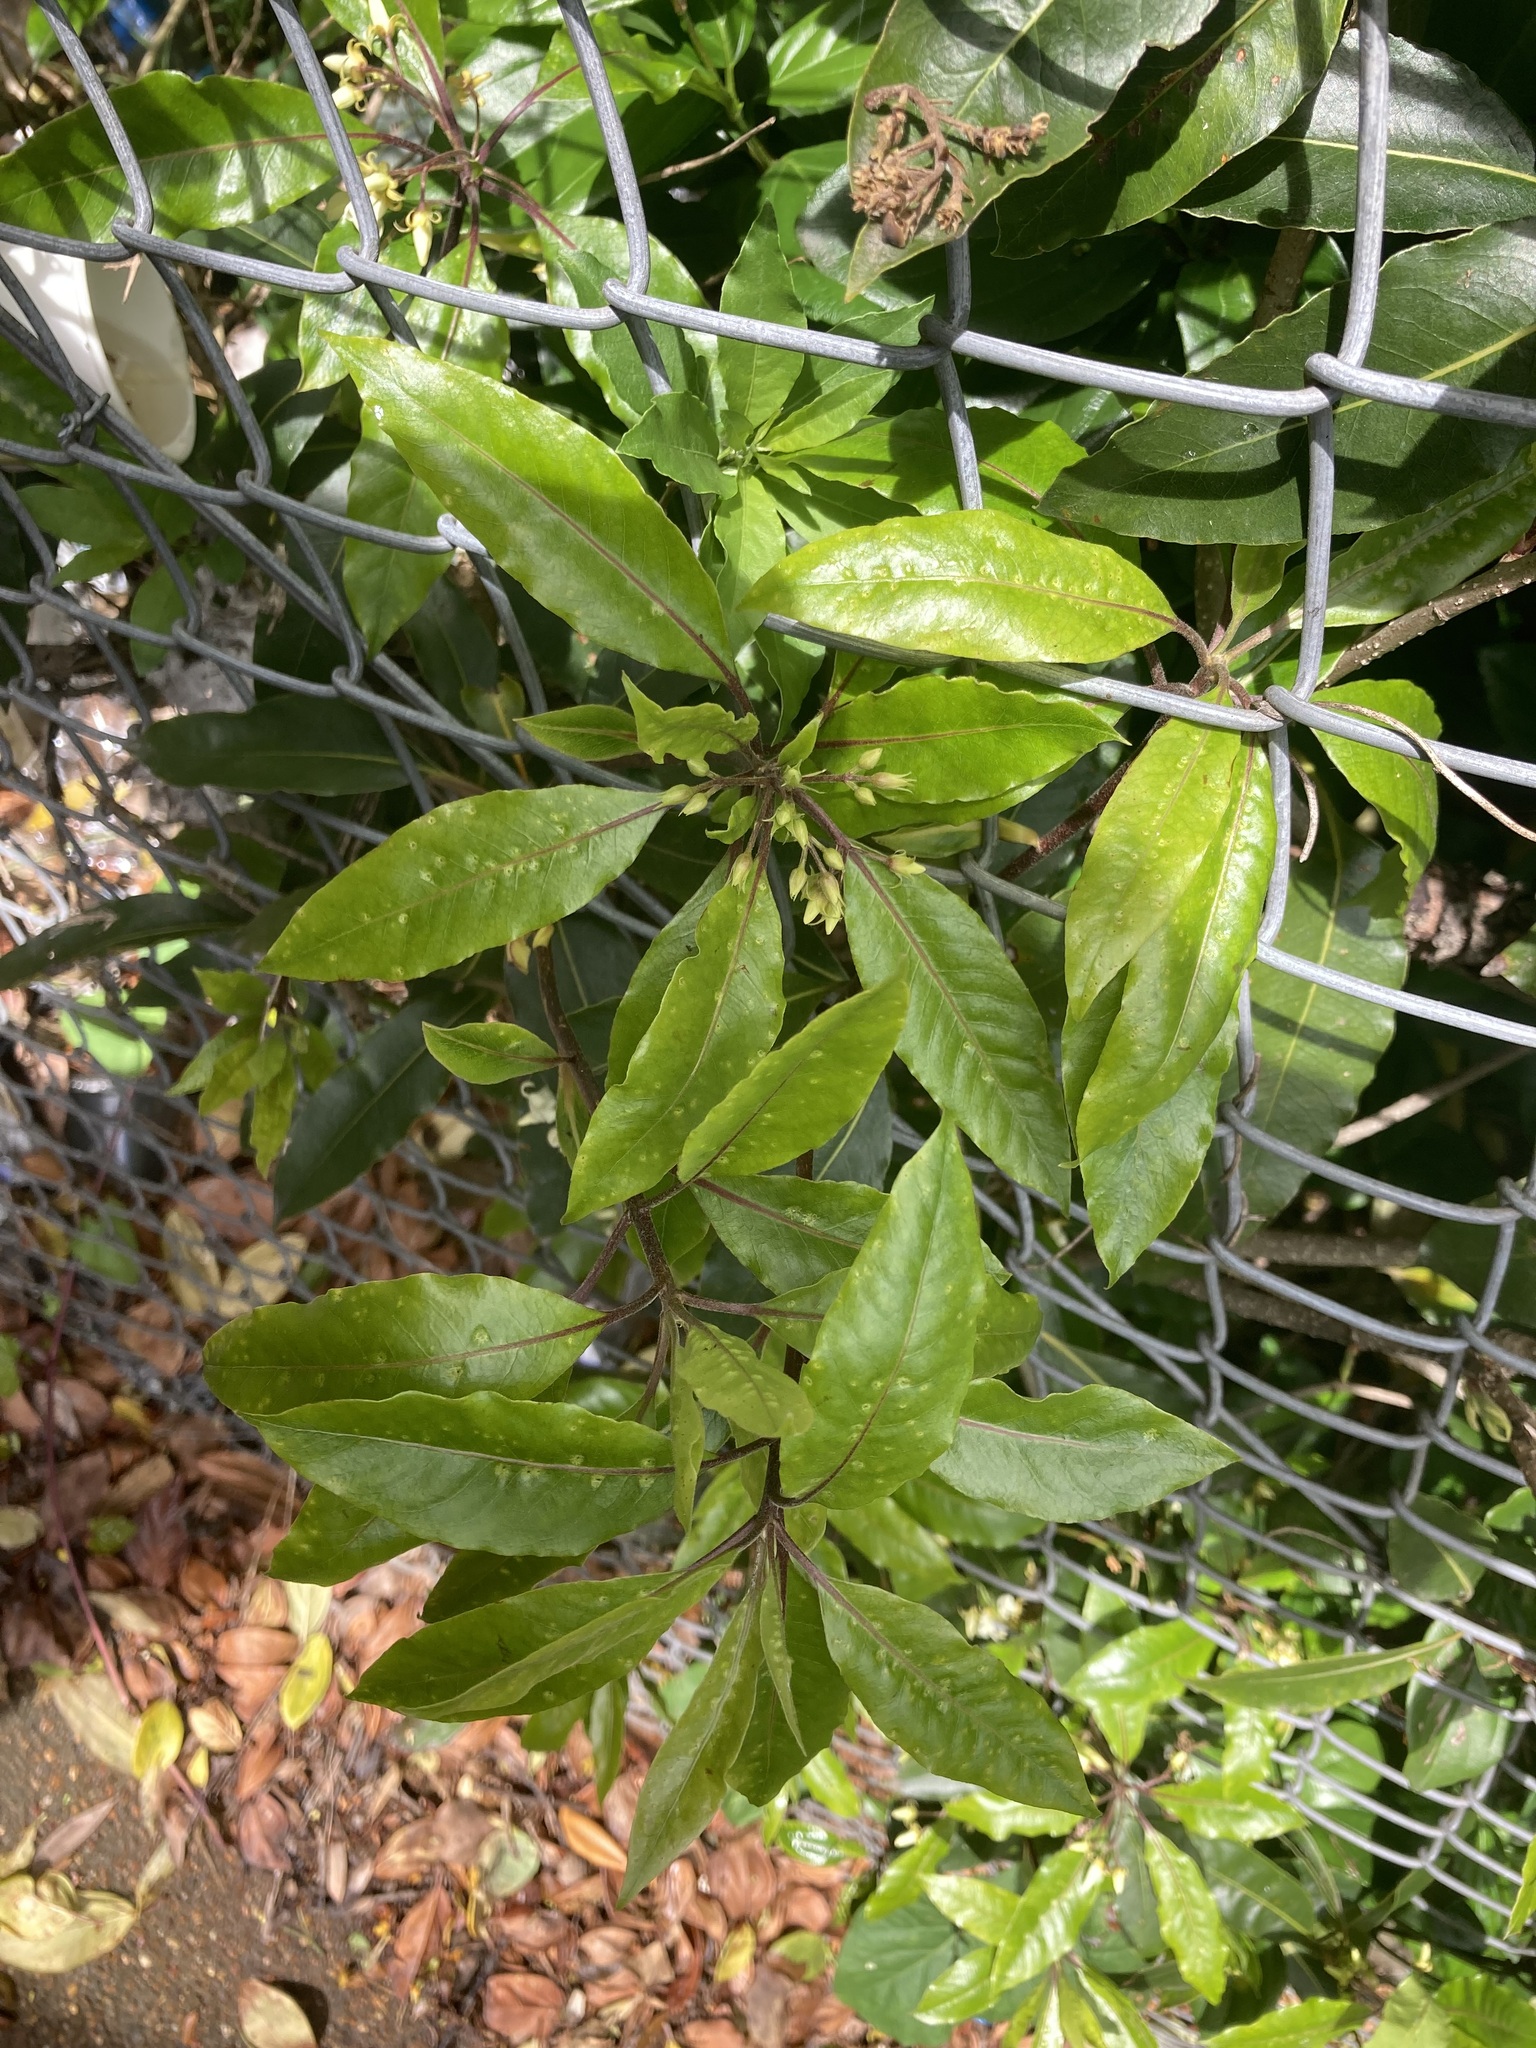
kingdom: Plantae
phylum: Tracheophyta
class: Magnoliopsida
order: Apiales
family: Pittosporaceae
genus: Pittosporum
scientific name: Pittosporum undulatum
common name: Australian cheesewood
